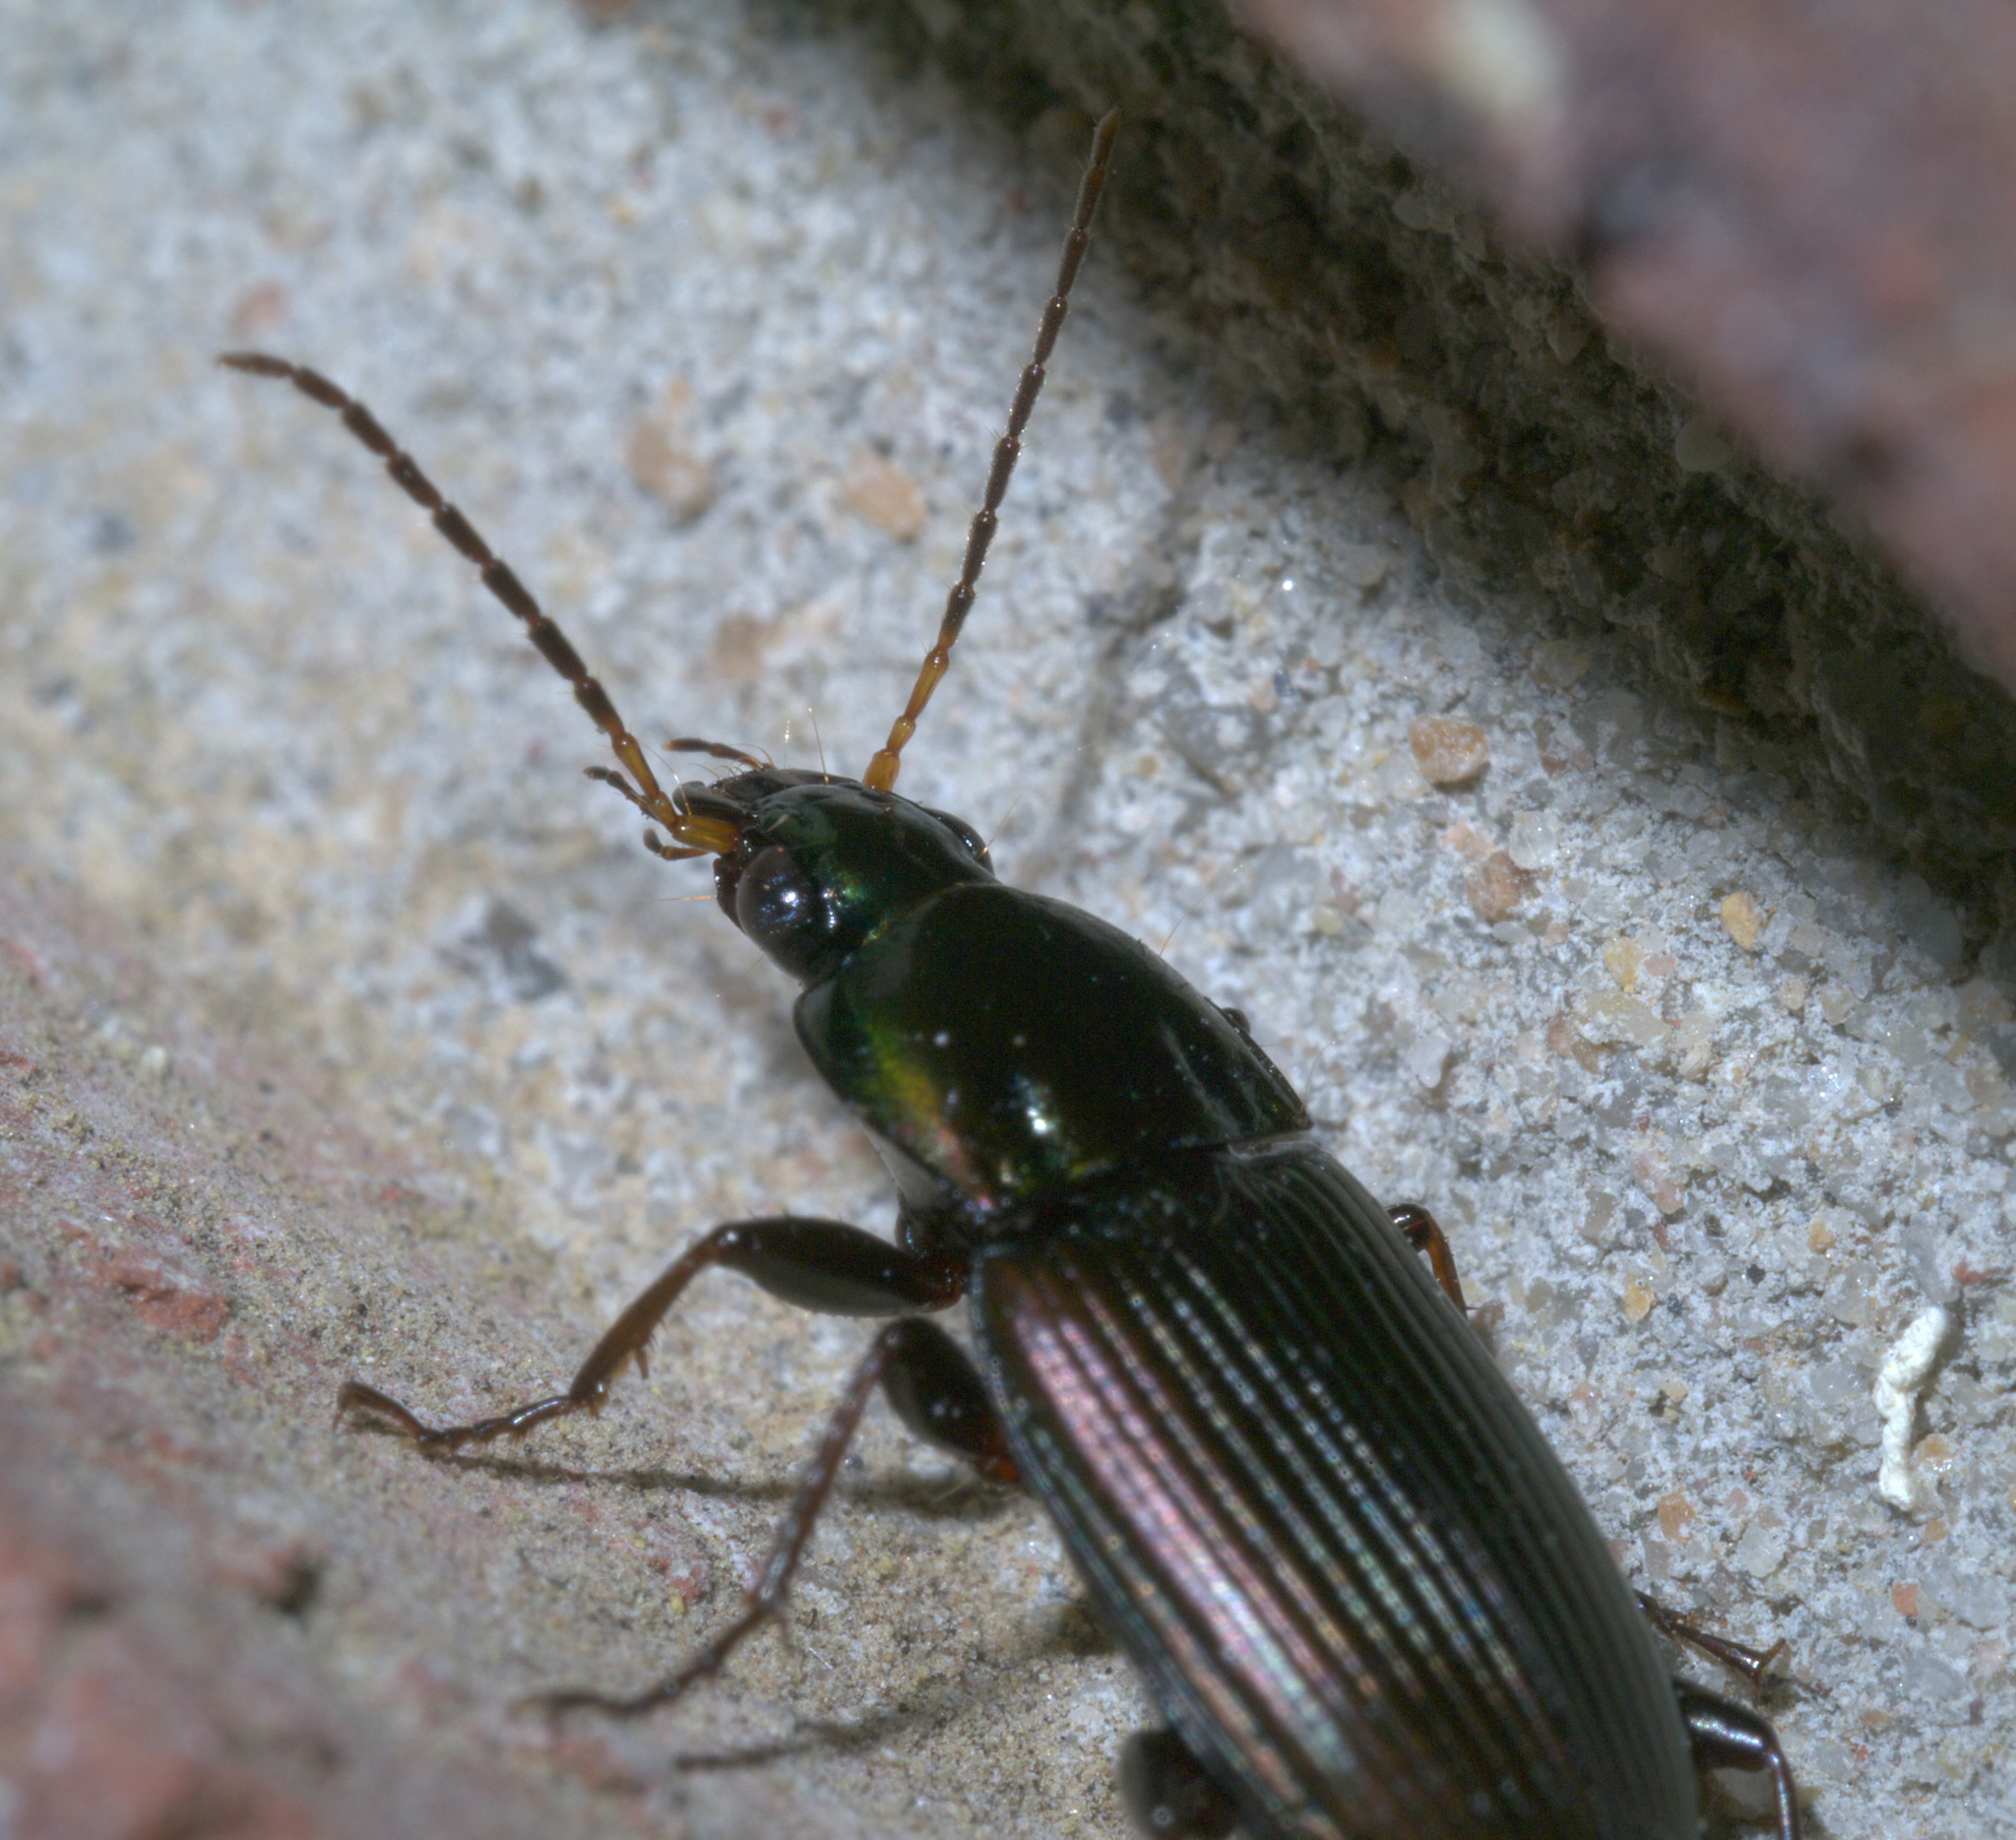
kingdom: Animalia
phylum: Arthropoda
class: Insecta
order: Coleoptera
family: Carabidae
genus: Poecilus
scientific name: Poecilus chalcites
